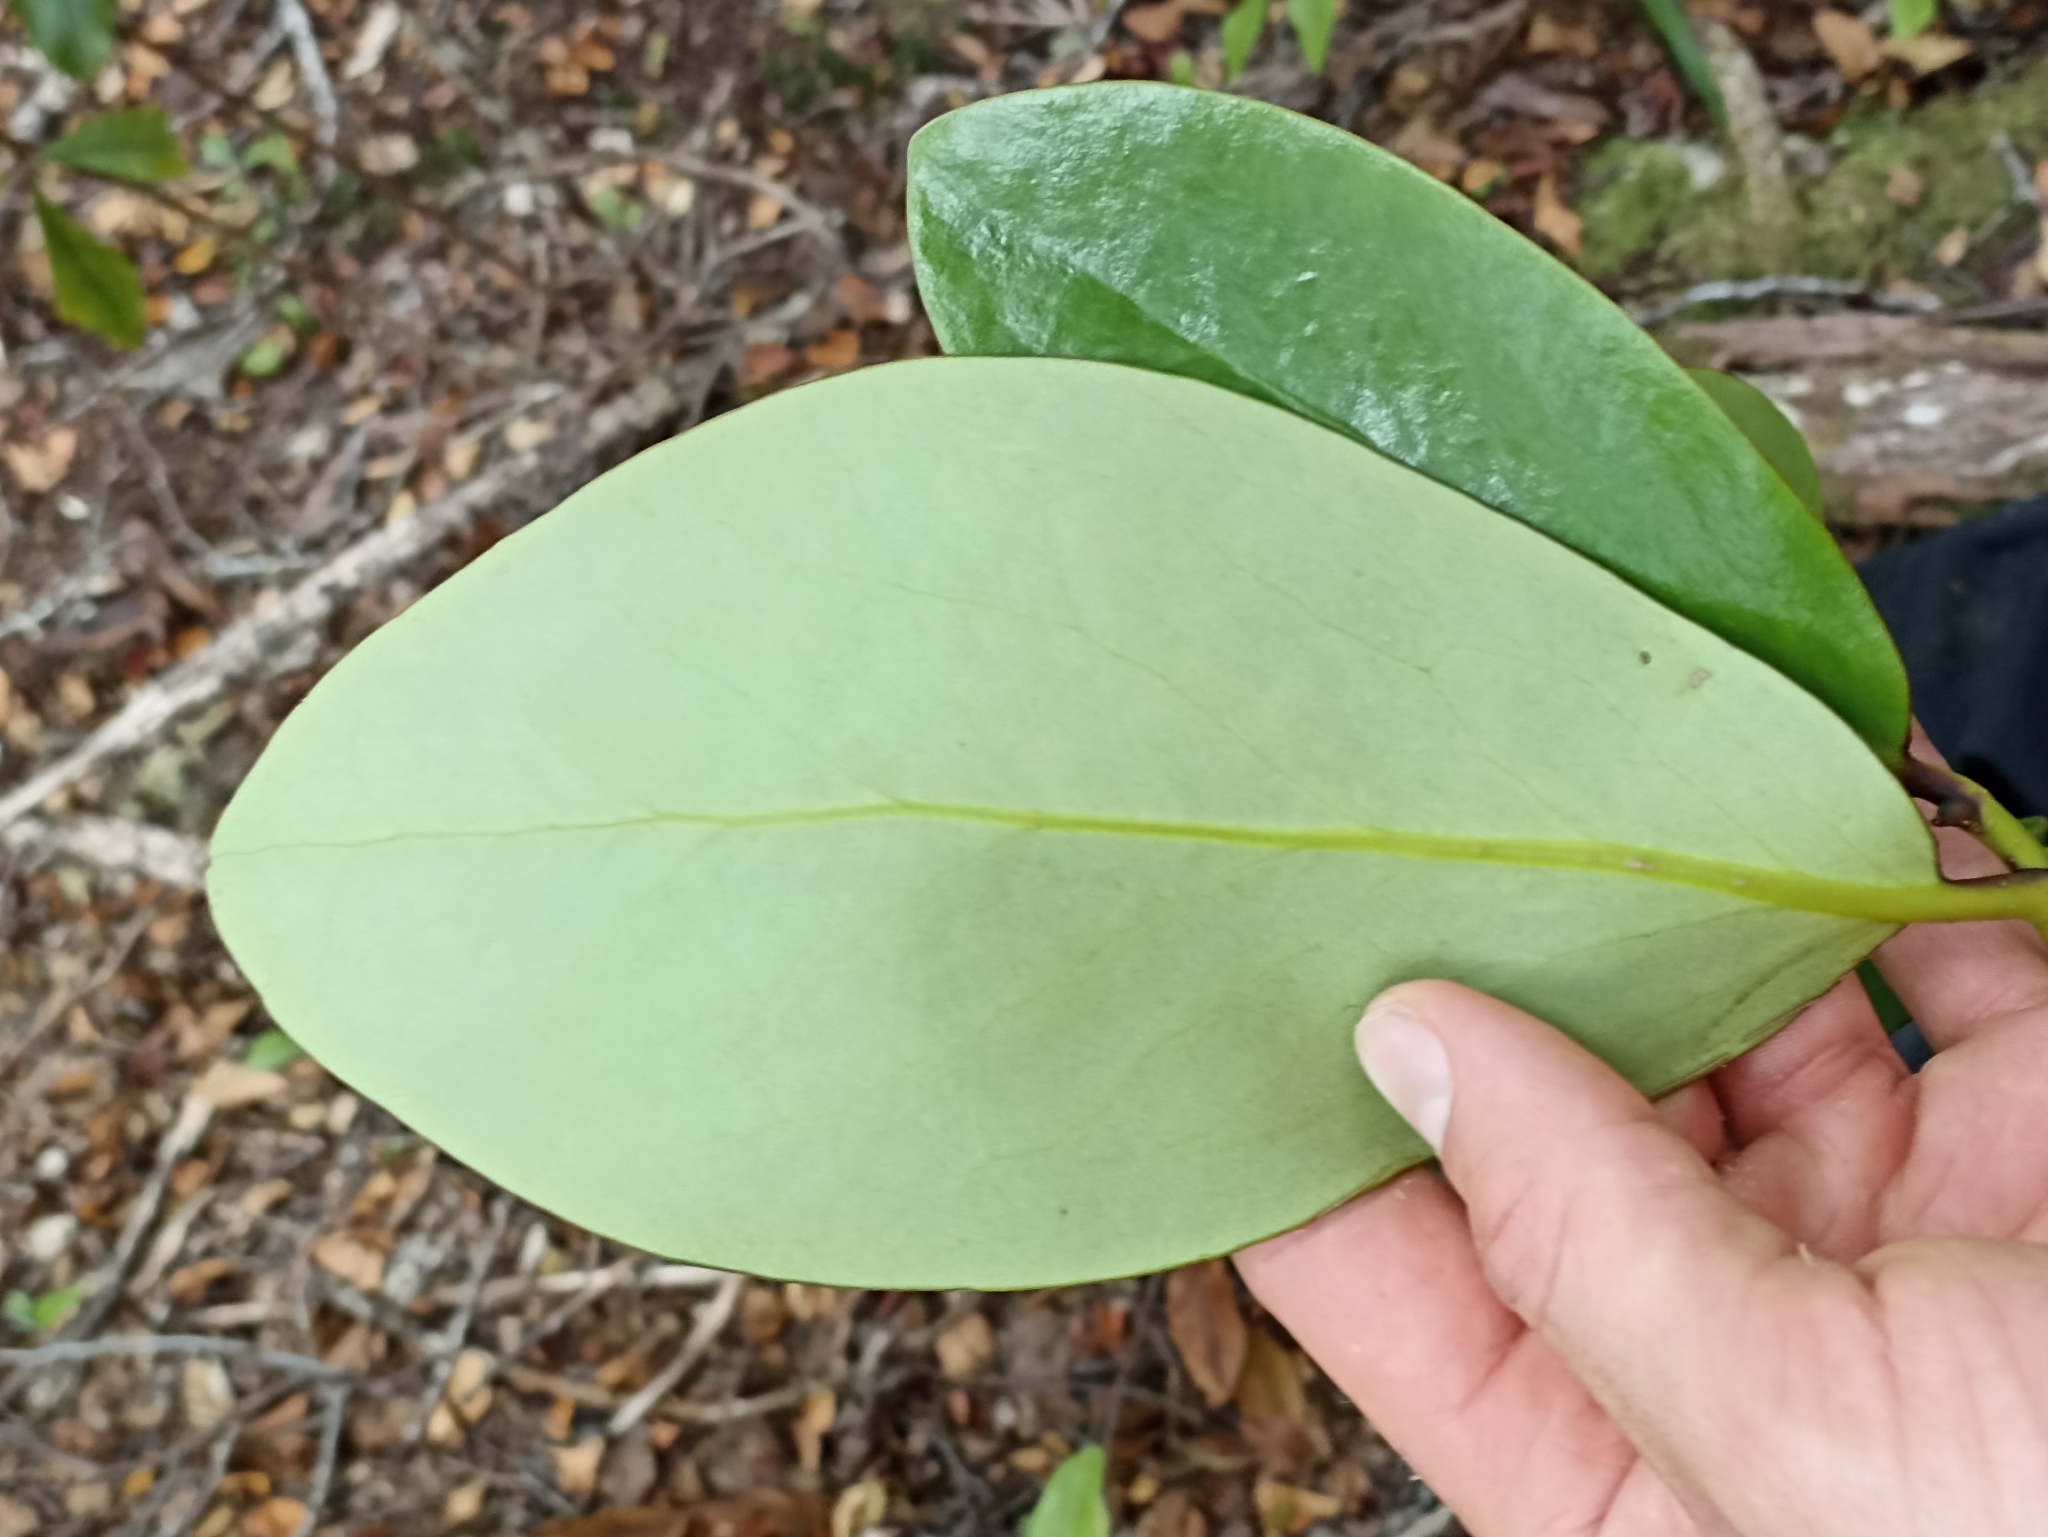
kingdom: Plantae
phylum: Tracheophyta
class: Magnoliopsida
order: Apiales
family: Griseliniaceae
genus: Griselinia
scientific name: Griselinia lucida
